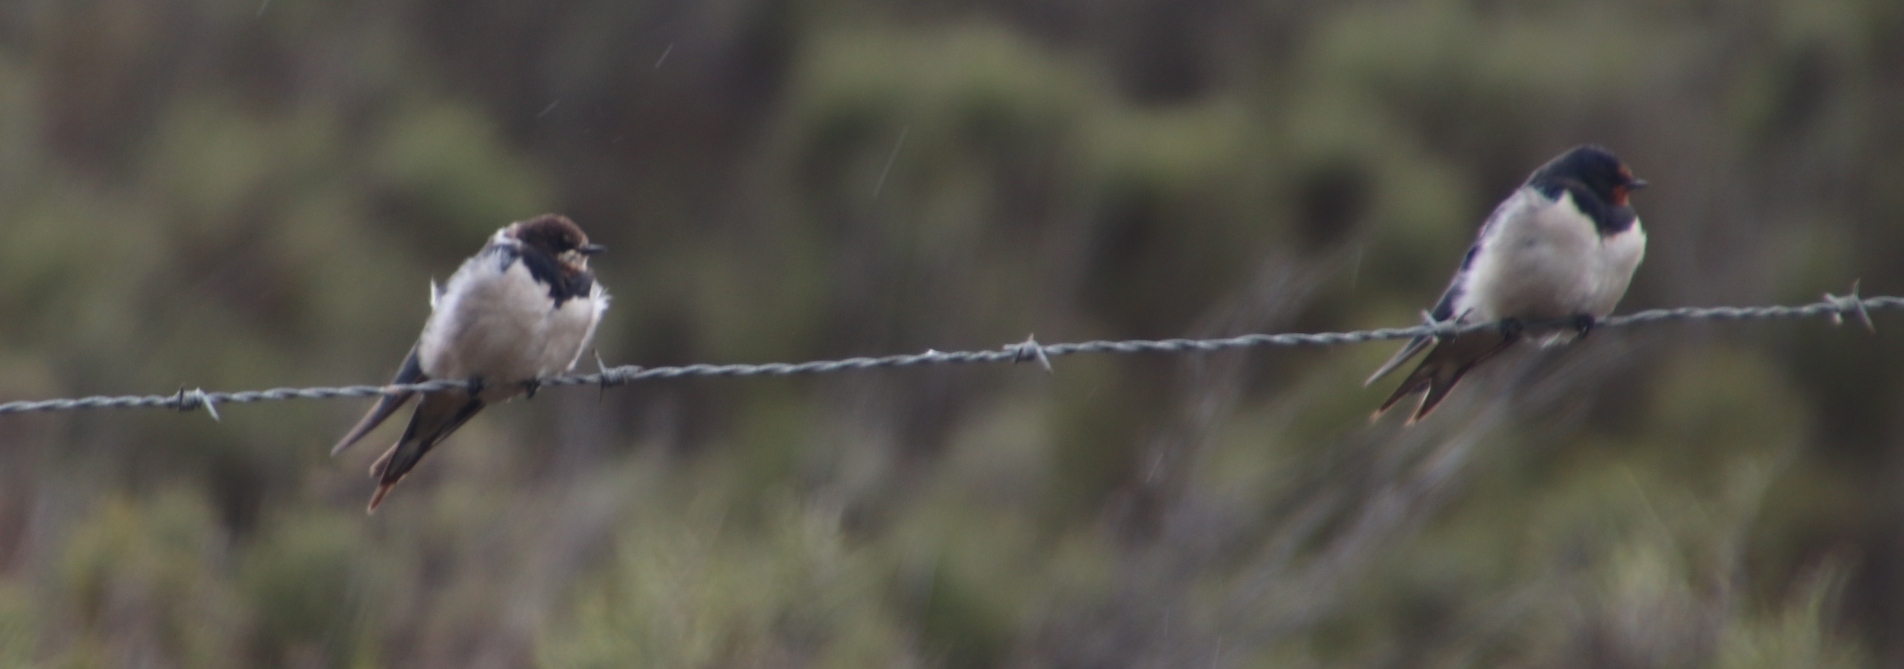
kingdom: Animalia
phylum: Chordata
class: Aves
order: Passeriformes
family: Hirundinidae
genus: Hirundo
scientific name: Hirundo rustica
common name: Barn swallow
